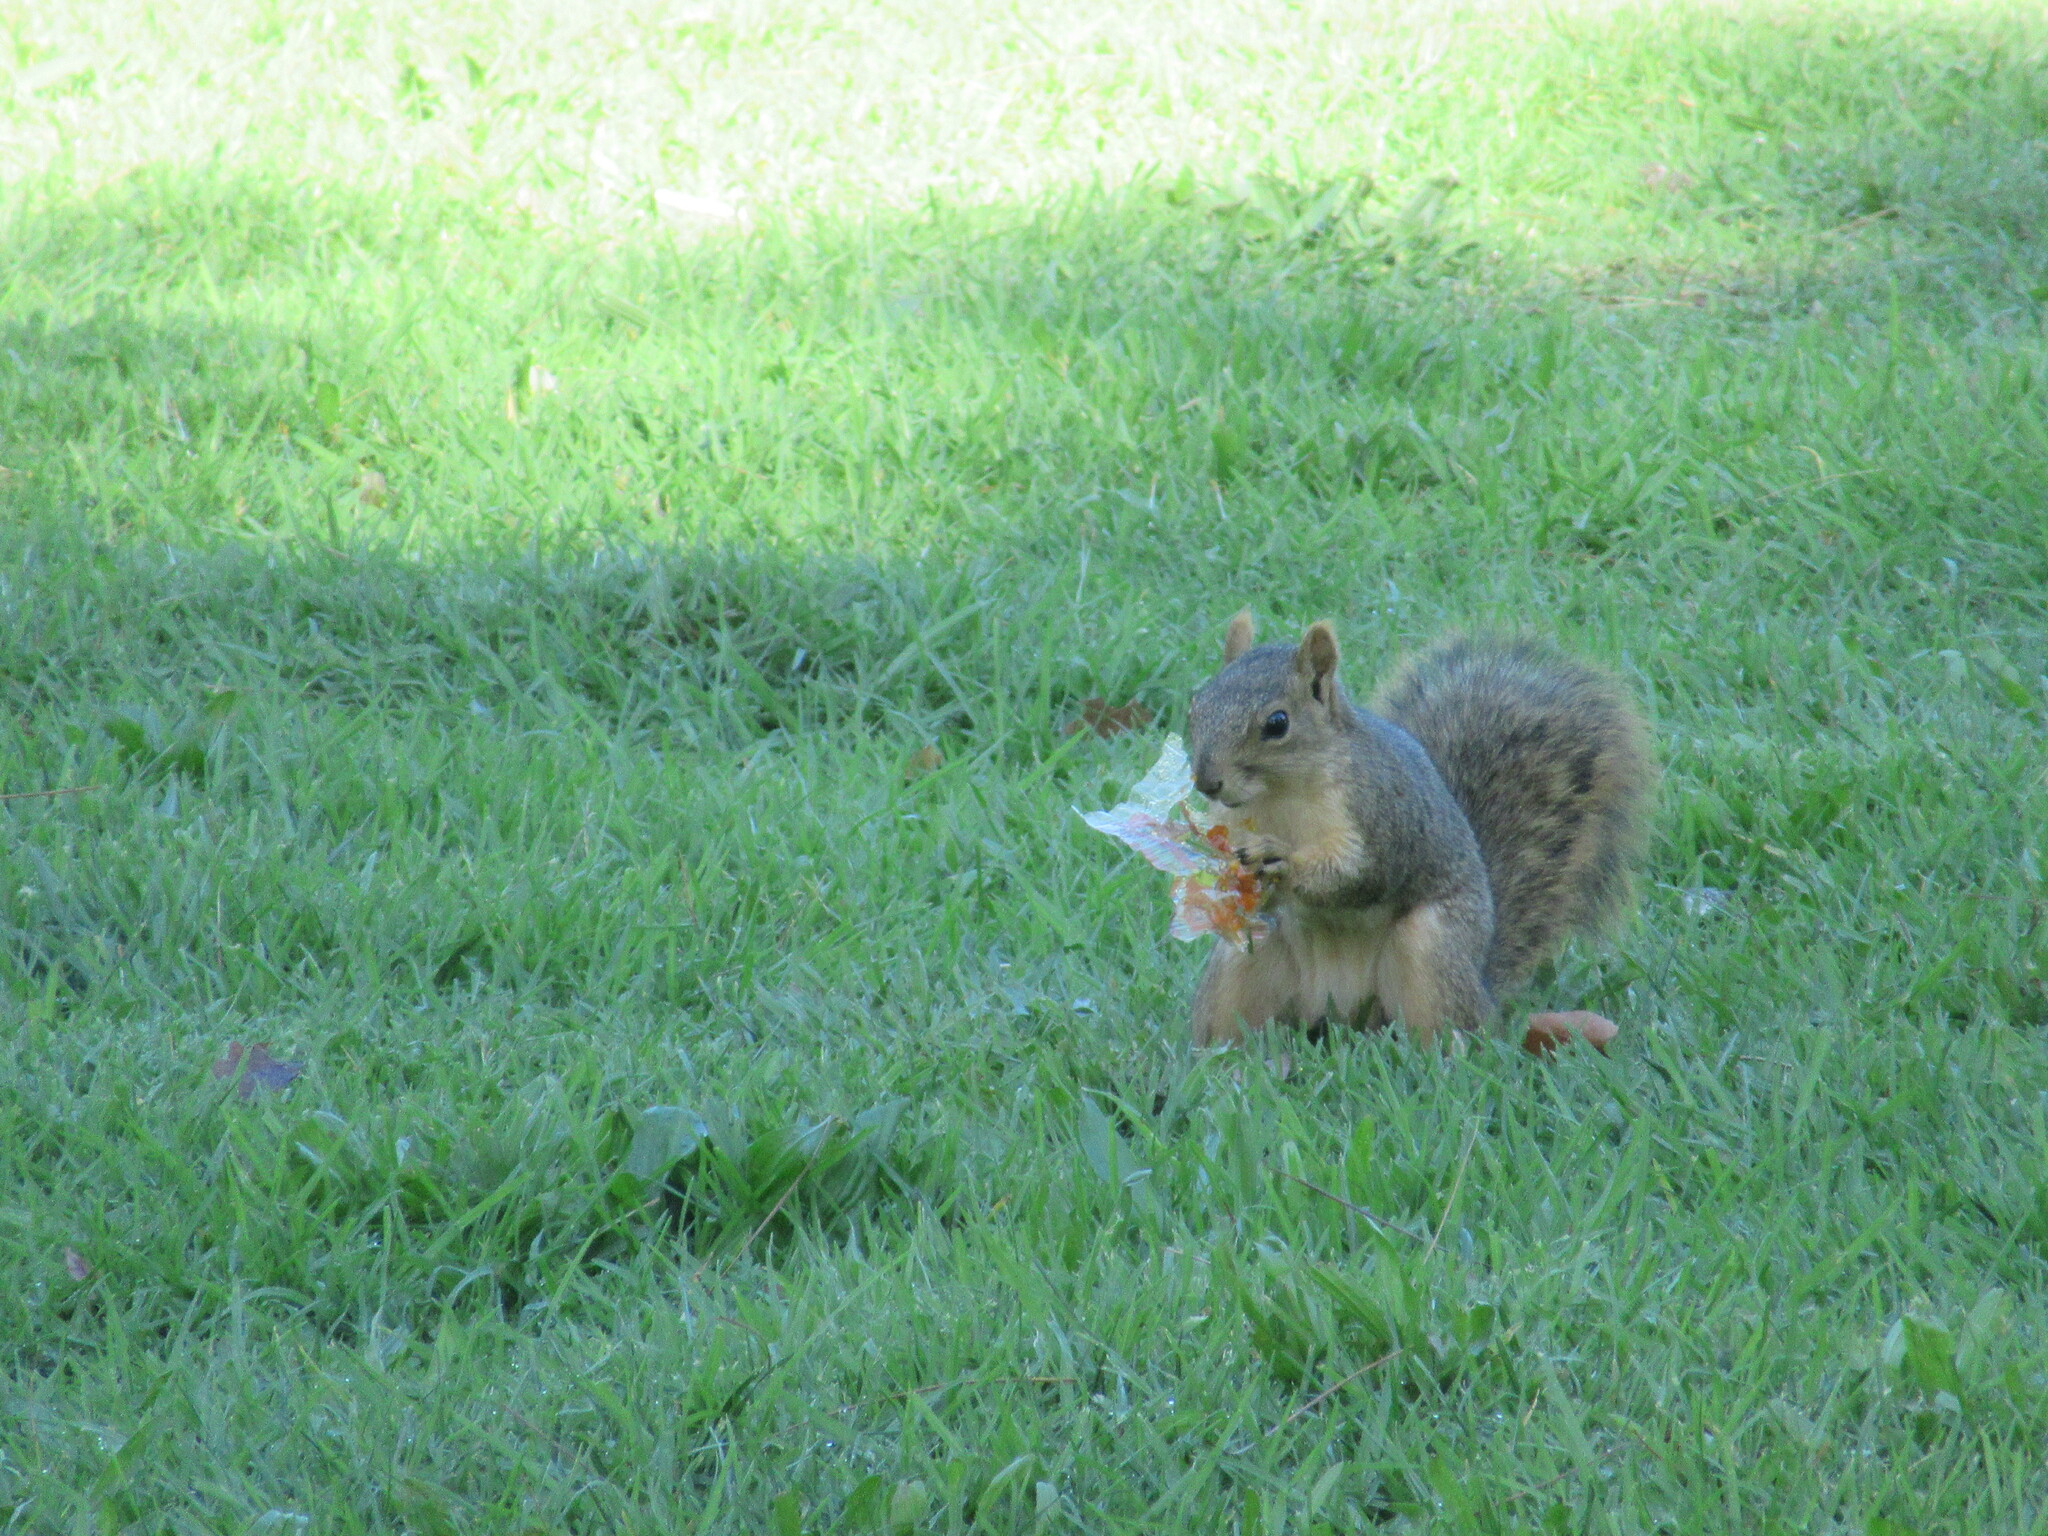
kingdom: Animalia
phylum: Chordata
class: Mammalia
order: Rodentia
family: Sciuridae
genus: Sciurus
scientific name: Sciurus niger
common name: Fox squirrel
